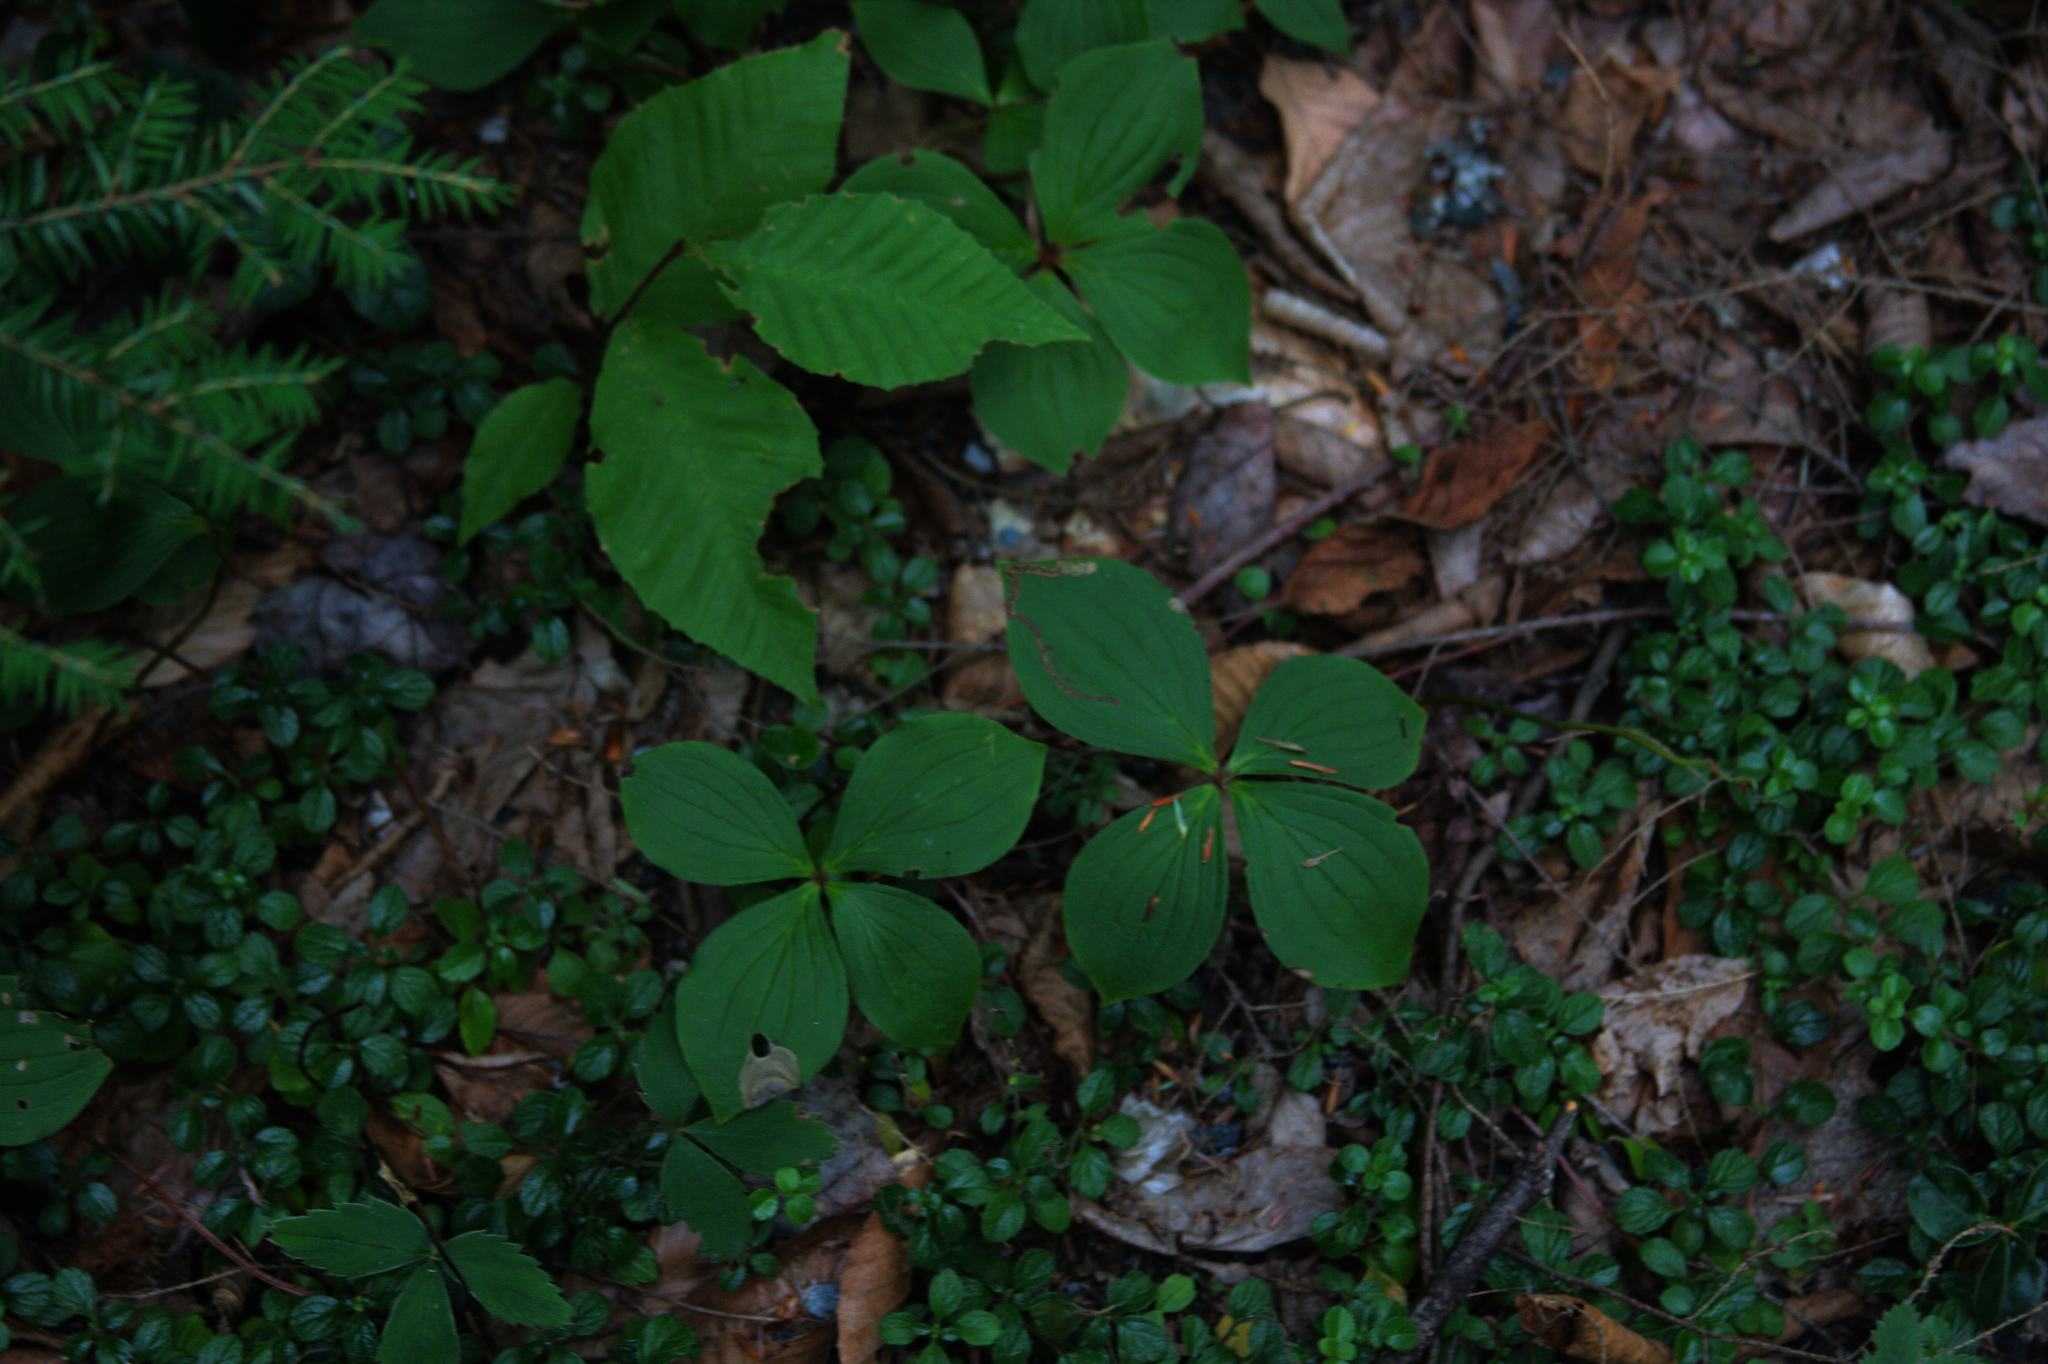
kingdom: Plantae
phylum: Tracheophyta
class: Magnoliopsida
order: Cornales
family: Cornaceae
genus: Cornus
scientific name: Cornus canadensis
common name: Creeping dogwood
